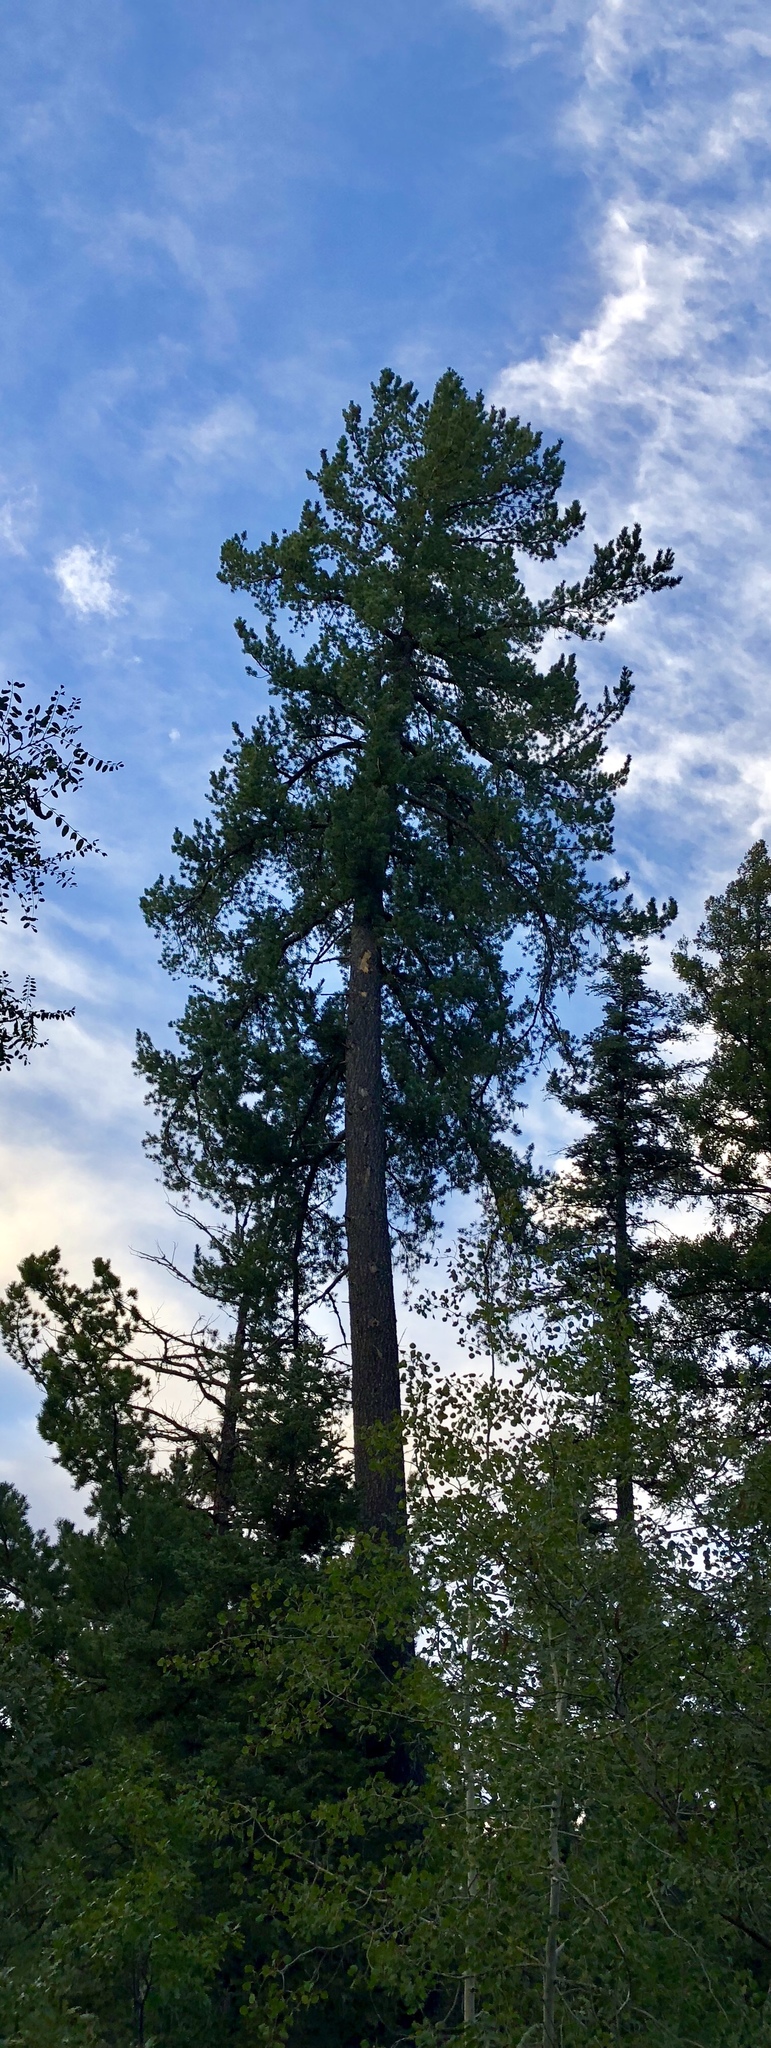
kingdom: Plantae
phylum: Tracheophyta
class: Pinopsida
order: Pinales
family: Pinaceae
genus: Pseudotsuga
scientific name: Pseudotsuga menziesii
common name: Douglas fir
